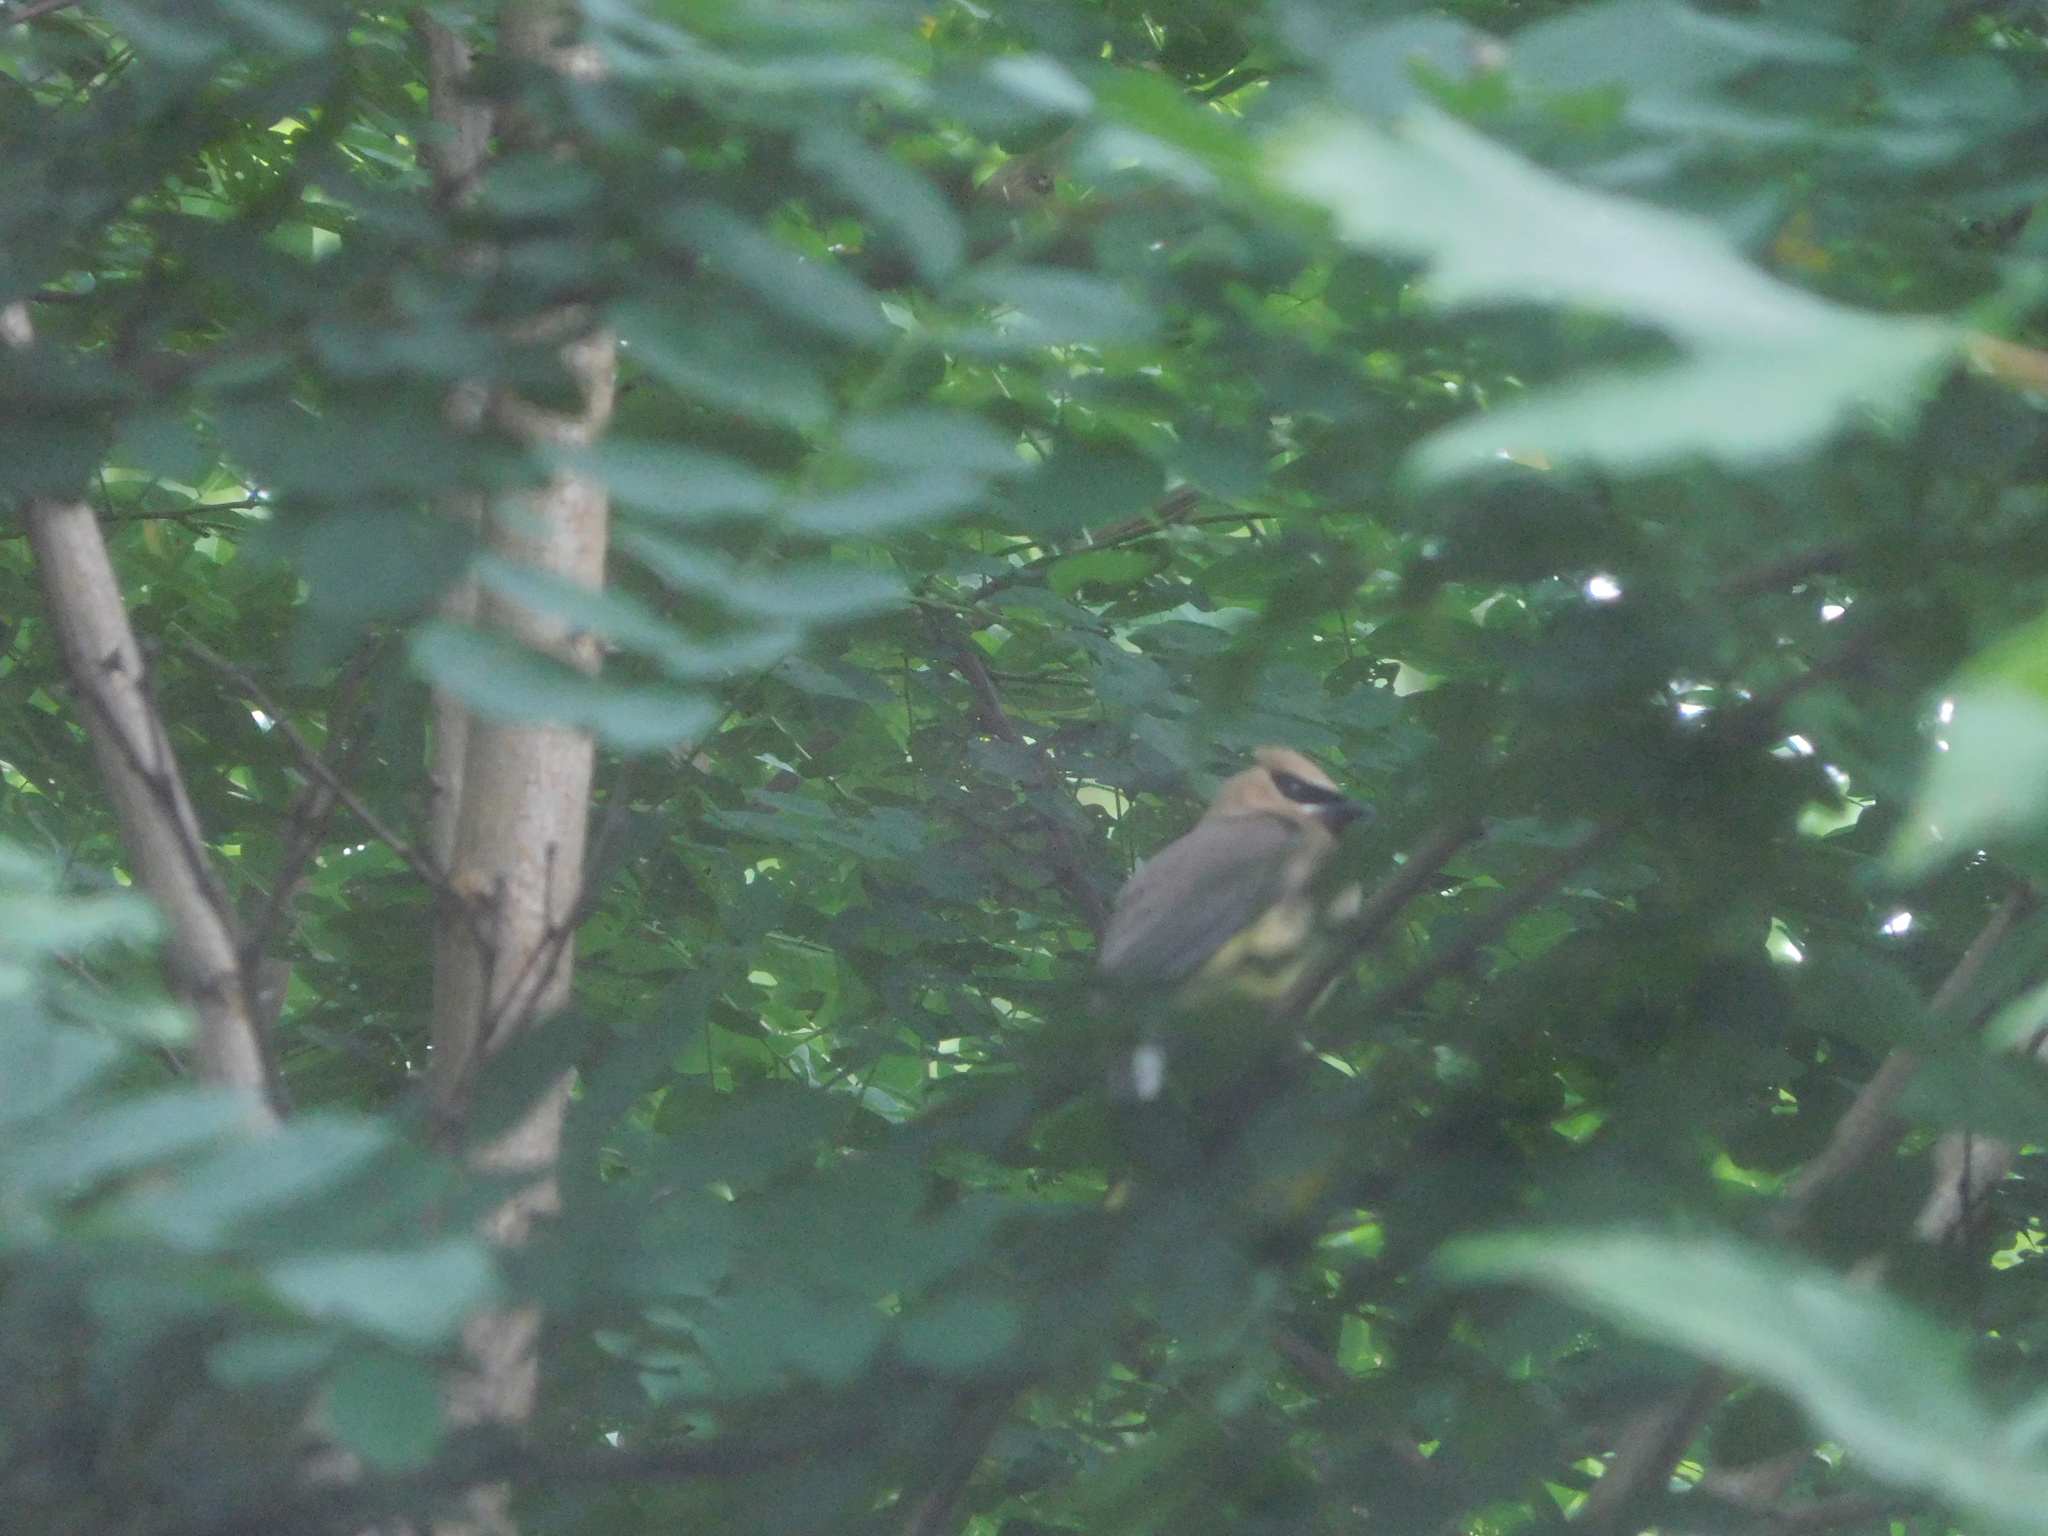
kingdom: Animalia
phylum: Chordata
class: Aves
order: Passeriformes
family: Bombycillidae
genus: Bombycilla
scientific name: Bombycilla cedrorum
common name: Cedar waxwing
